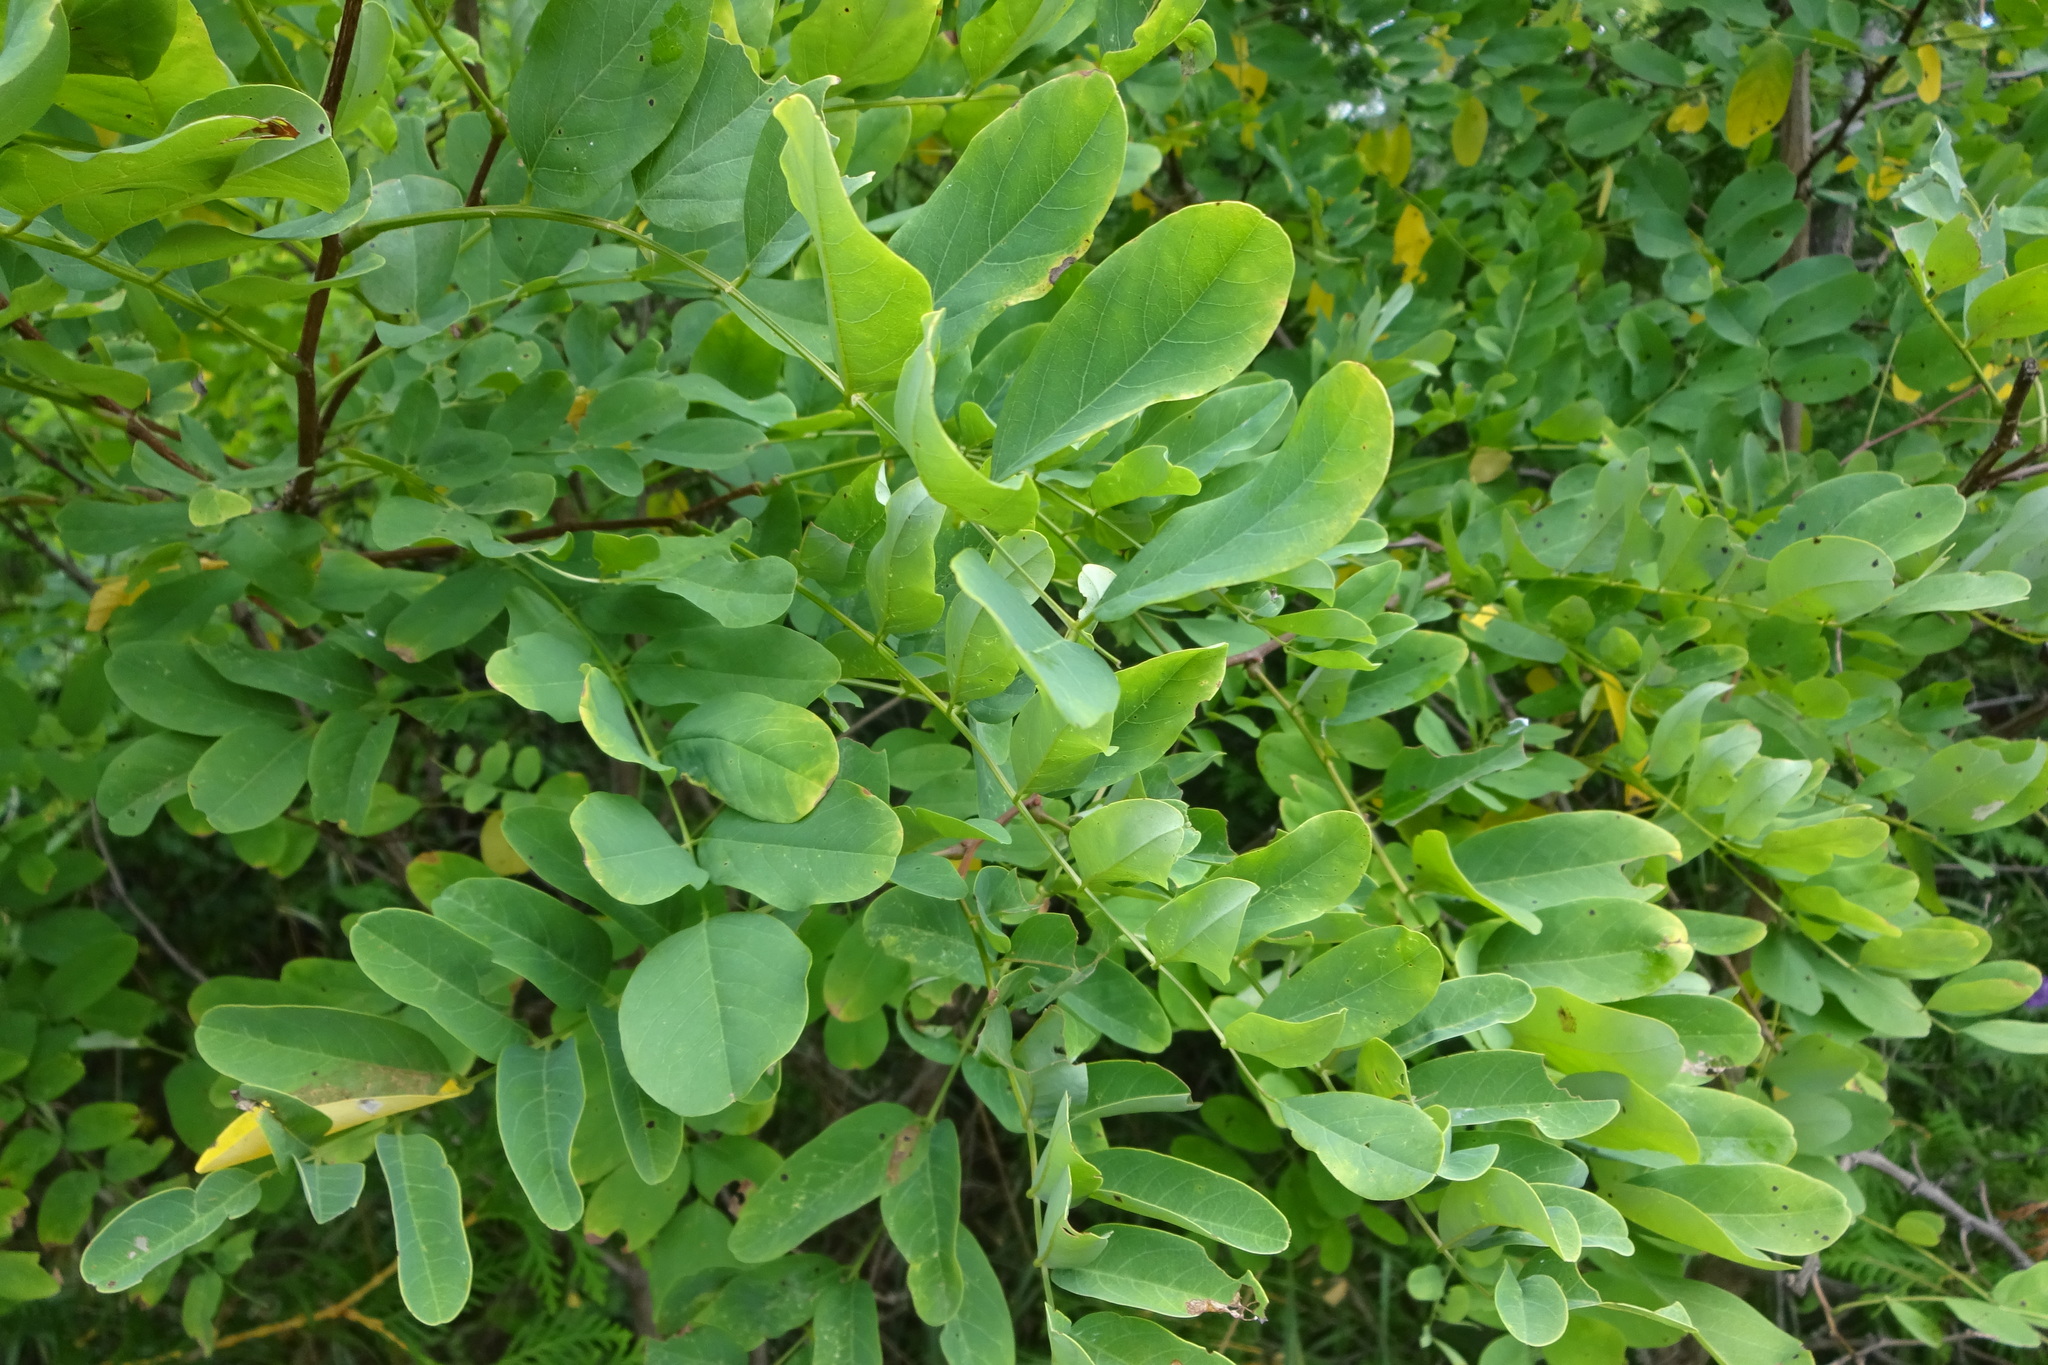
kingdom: Plantae
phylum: Tracheophyta
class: Magnoliopsida
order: Fabales
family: Fabaceae
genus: Robinia
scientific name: Robinia pseudoacacia
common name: Black locust
